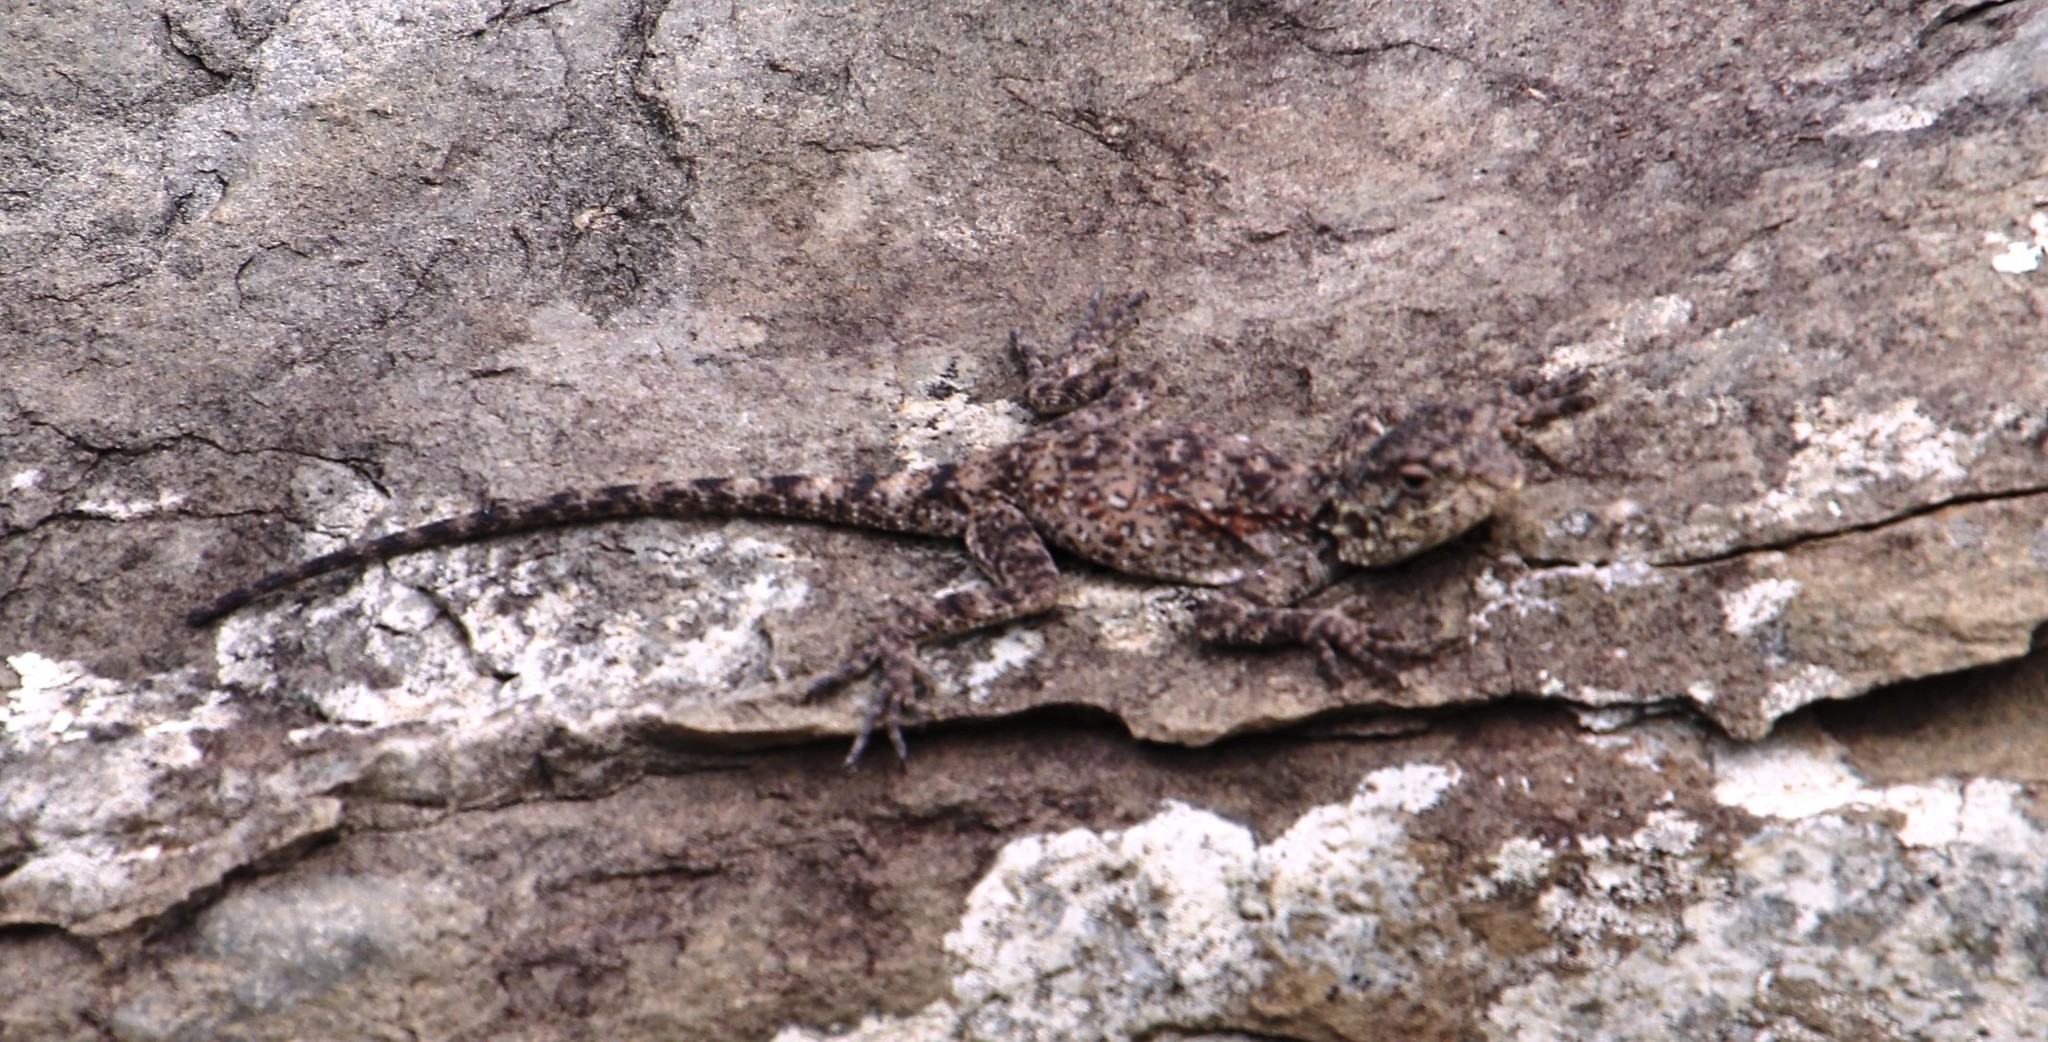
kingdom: Animalia
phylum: Chordata
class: Squamata
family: Agamidae
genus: Agama
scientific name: Agama atra
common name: Southern african rock agama
